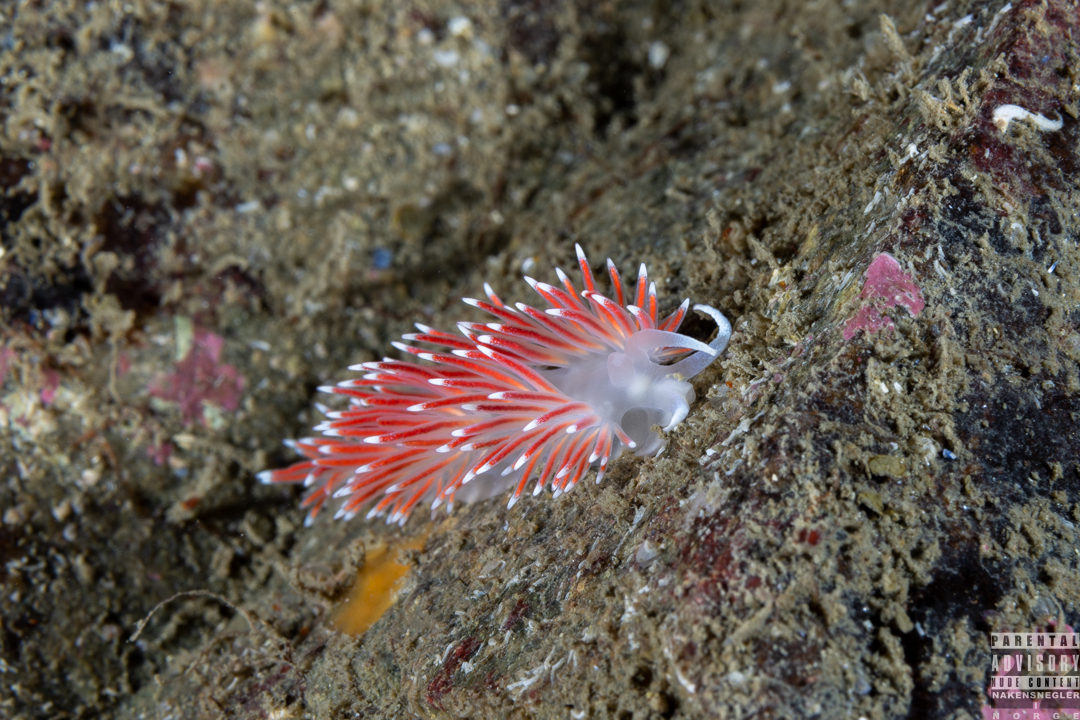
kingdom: Animalia
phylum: Mollusca
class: Gastropoda
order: Nudibranchia
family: Flabellinidae
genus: Carronella
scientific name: Carronella pellucida
